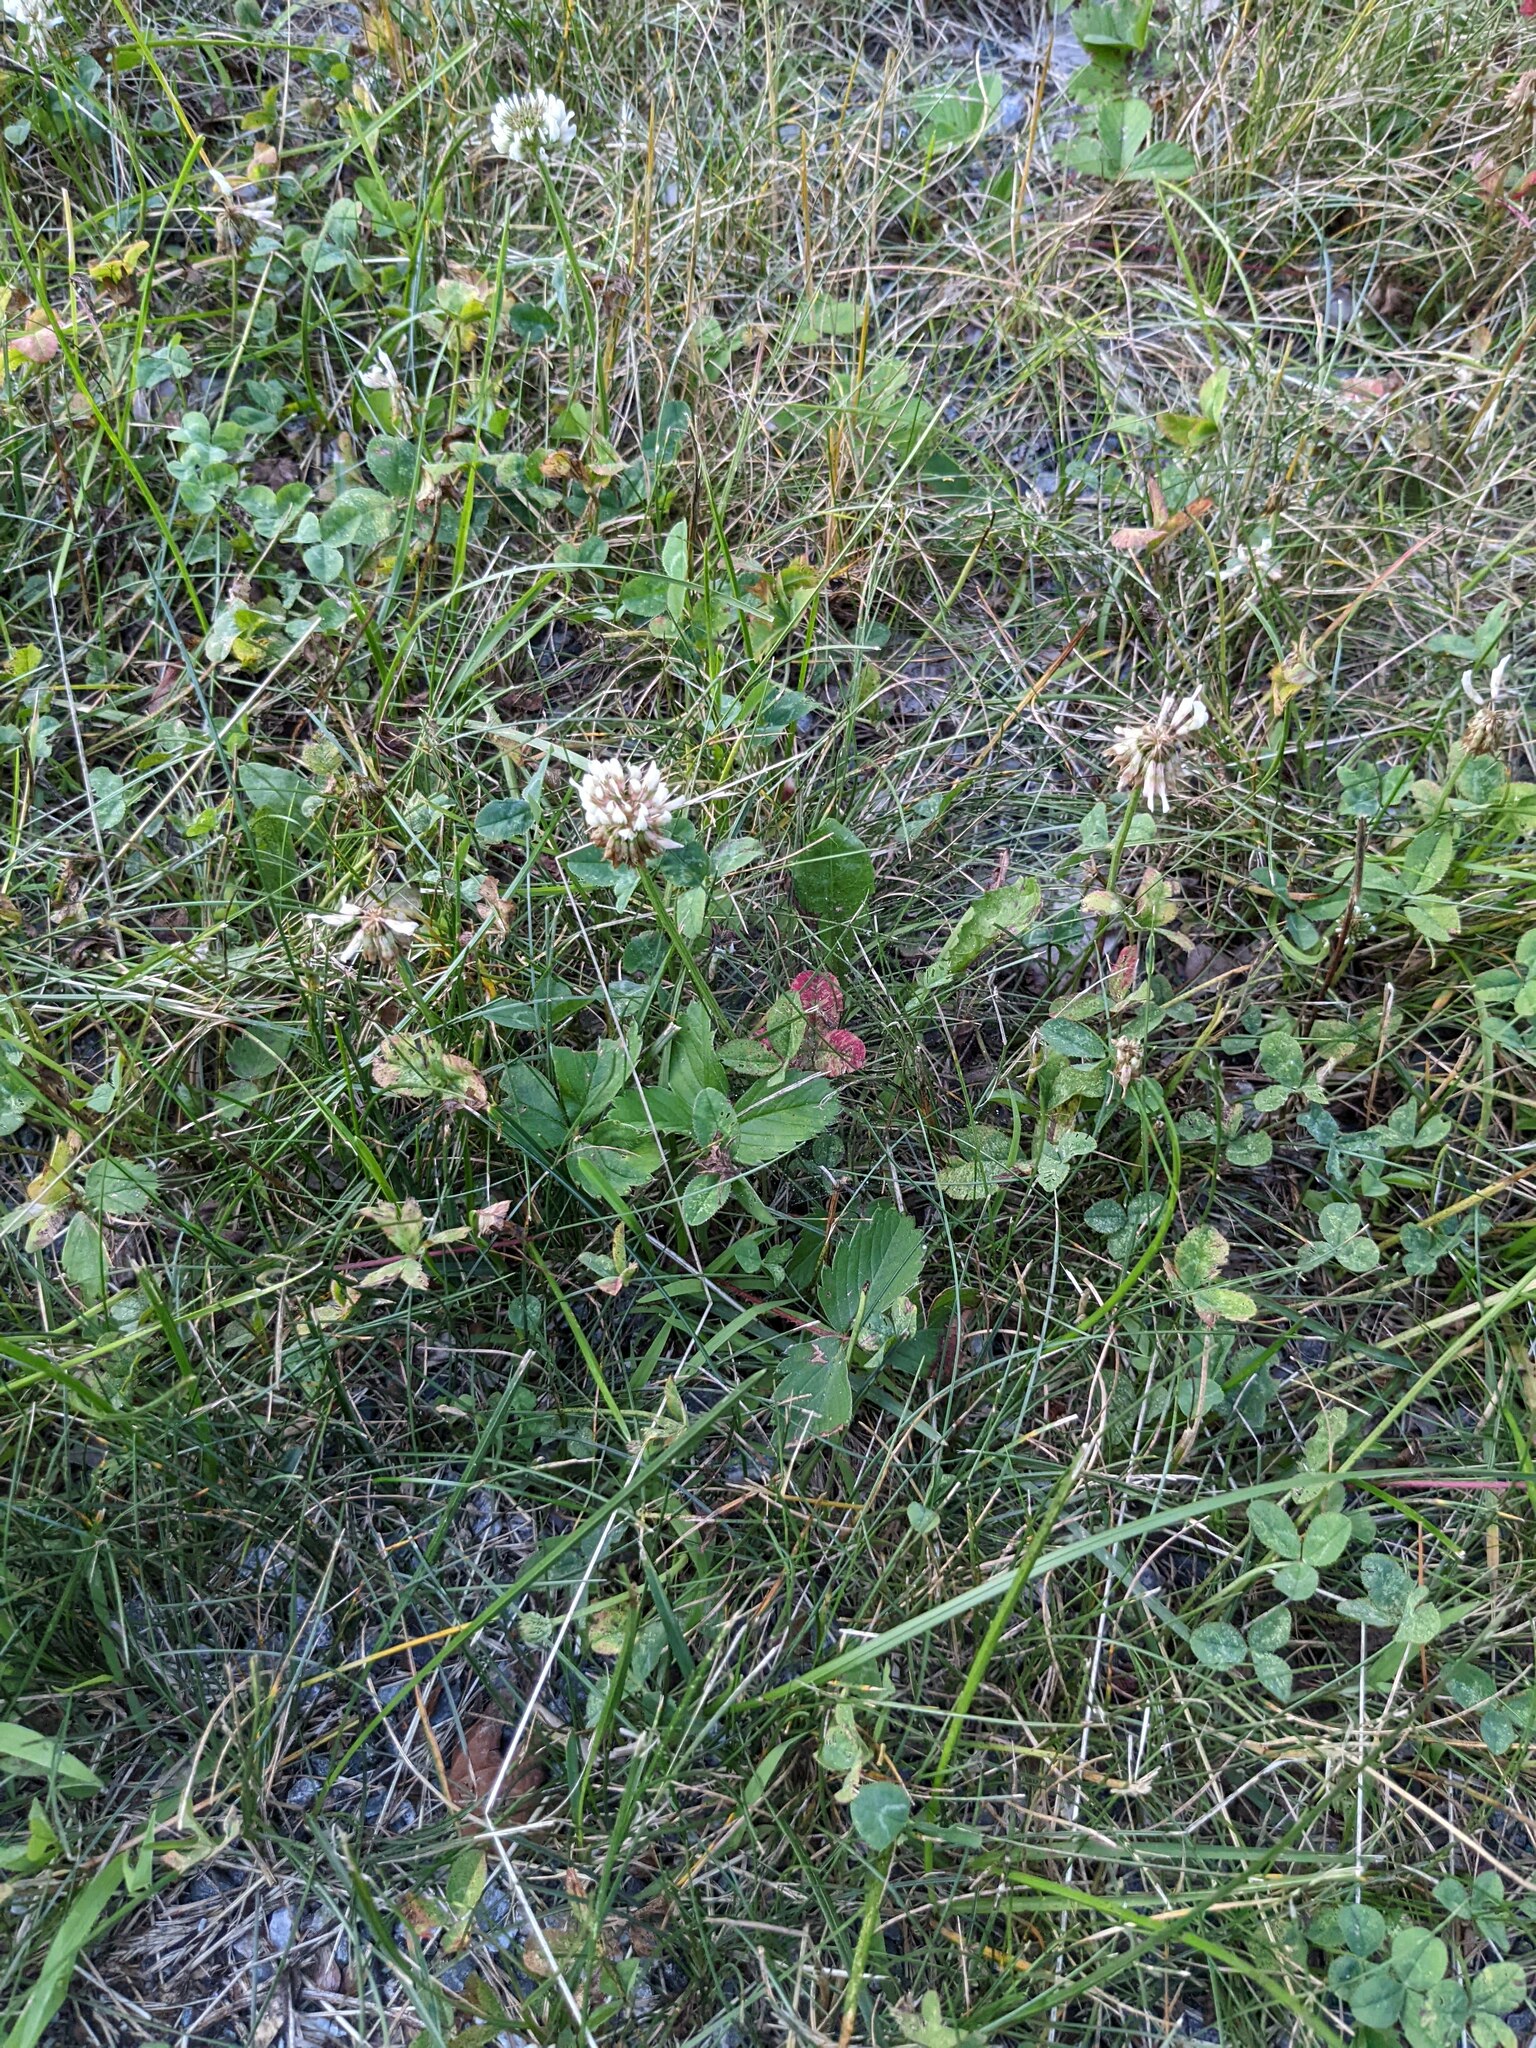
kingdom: Plantae
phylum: Tracheophyta
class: Magnoliopsida
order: Fabales
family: Fabaceae
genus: Trifolium
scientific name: Trifolium repens
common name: White clover
